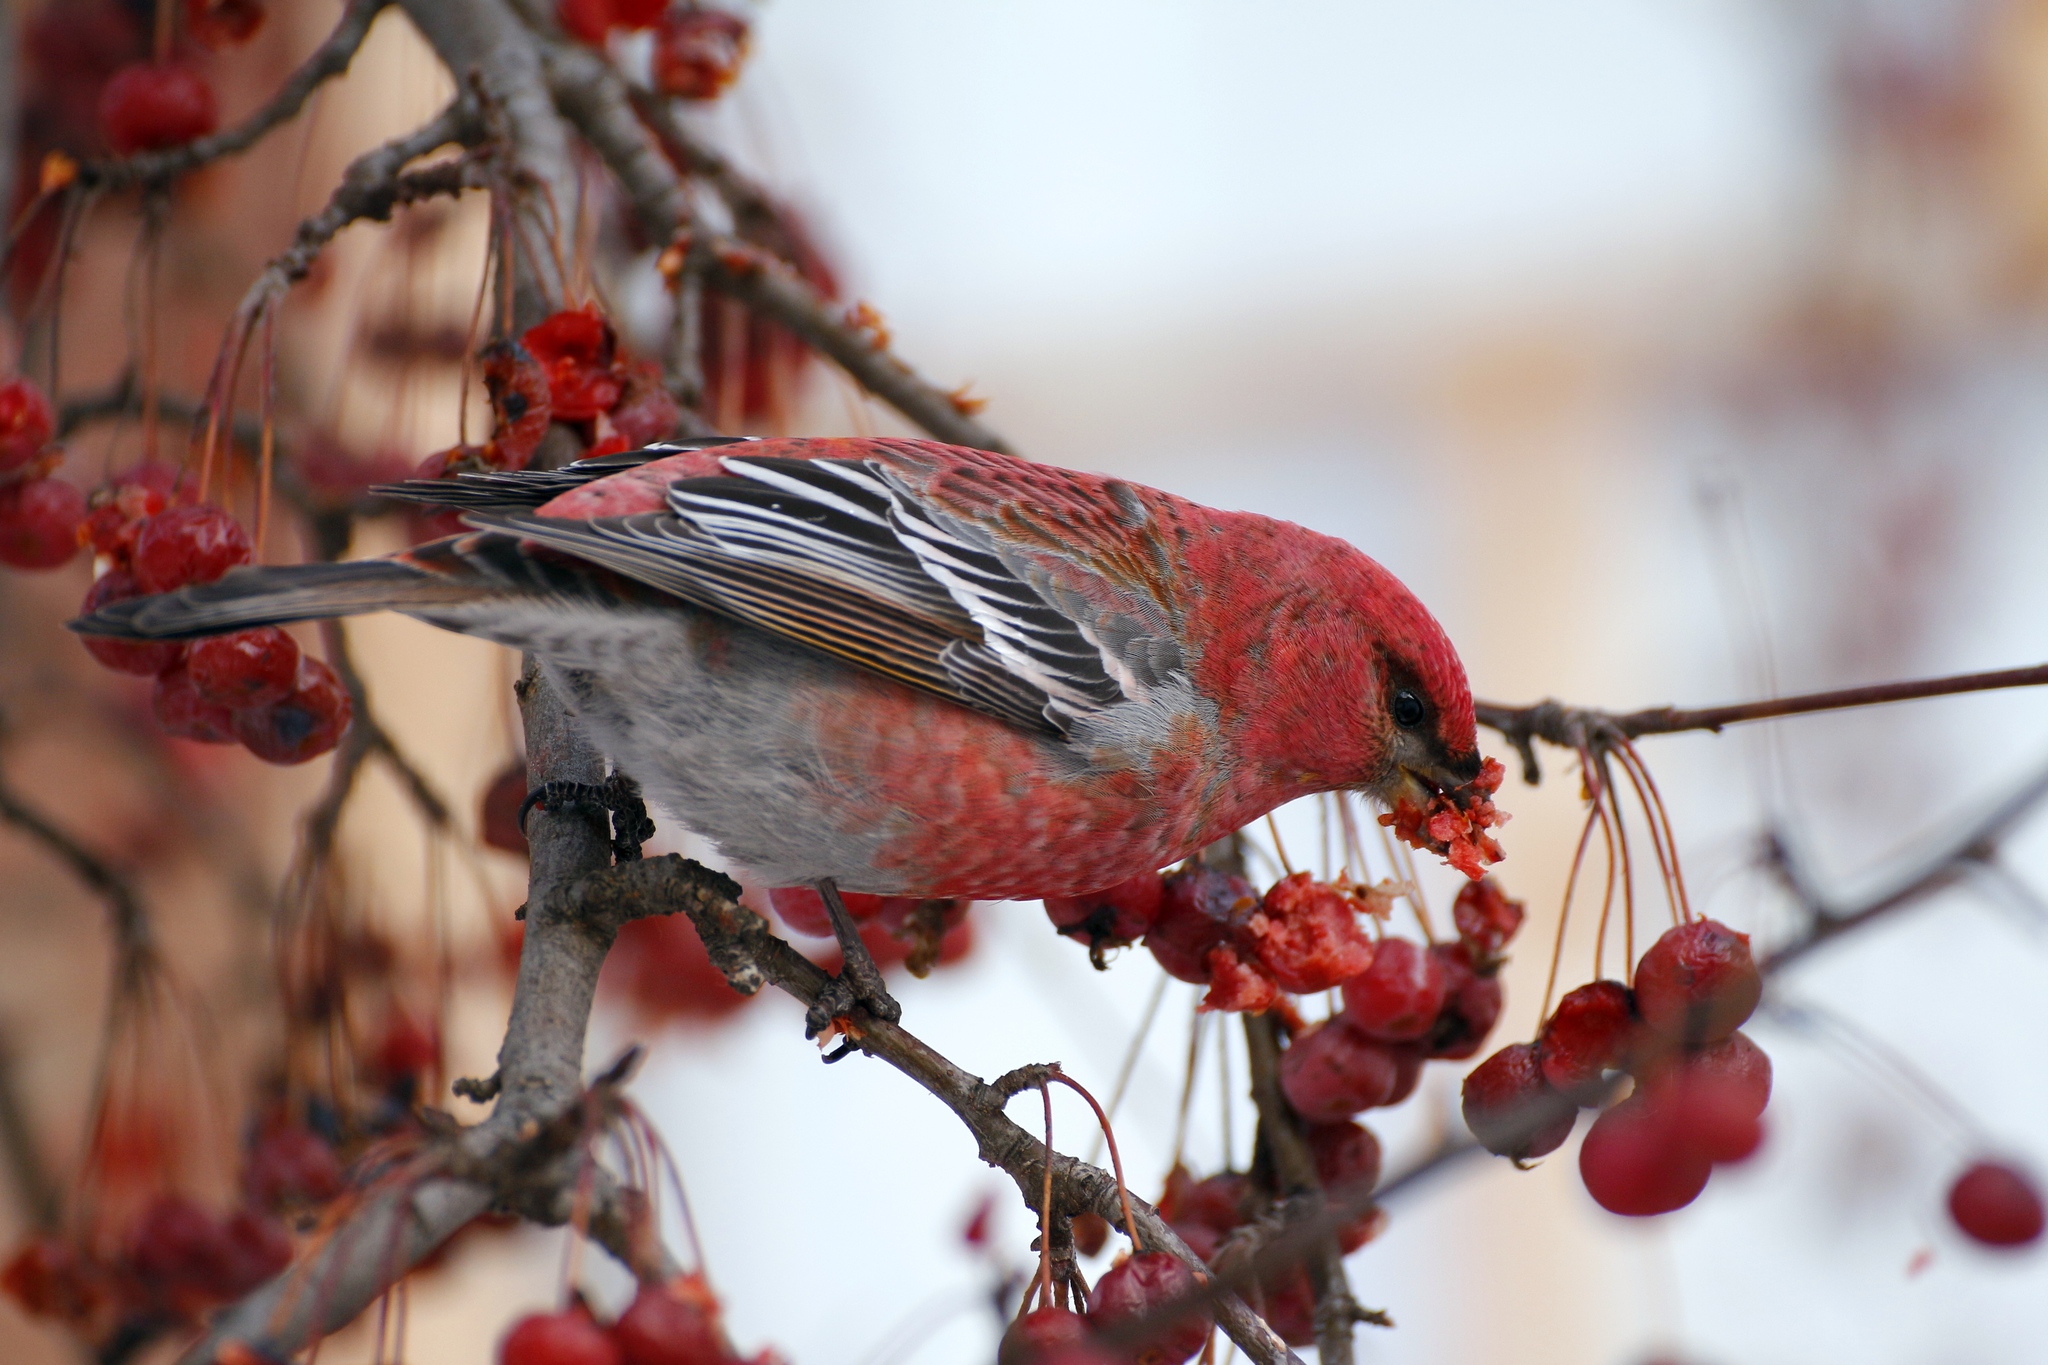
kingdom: Animalia
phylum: Chordata
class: Aves
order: Passeriformes
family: Fringillidae
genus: Pinicola
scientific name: Pinicola enucleator
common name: Pine grosbeak
